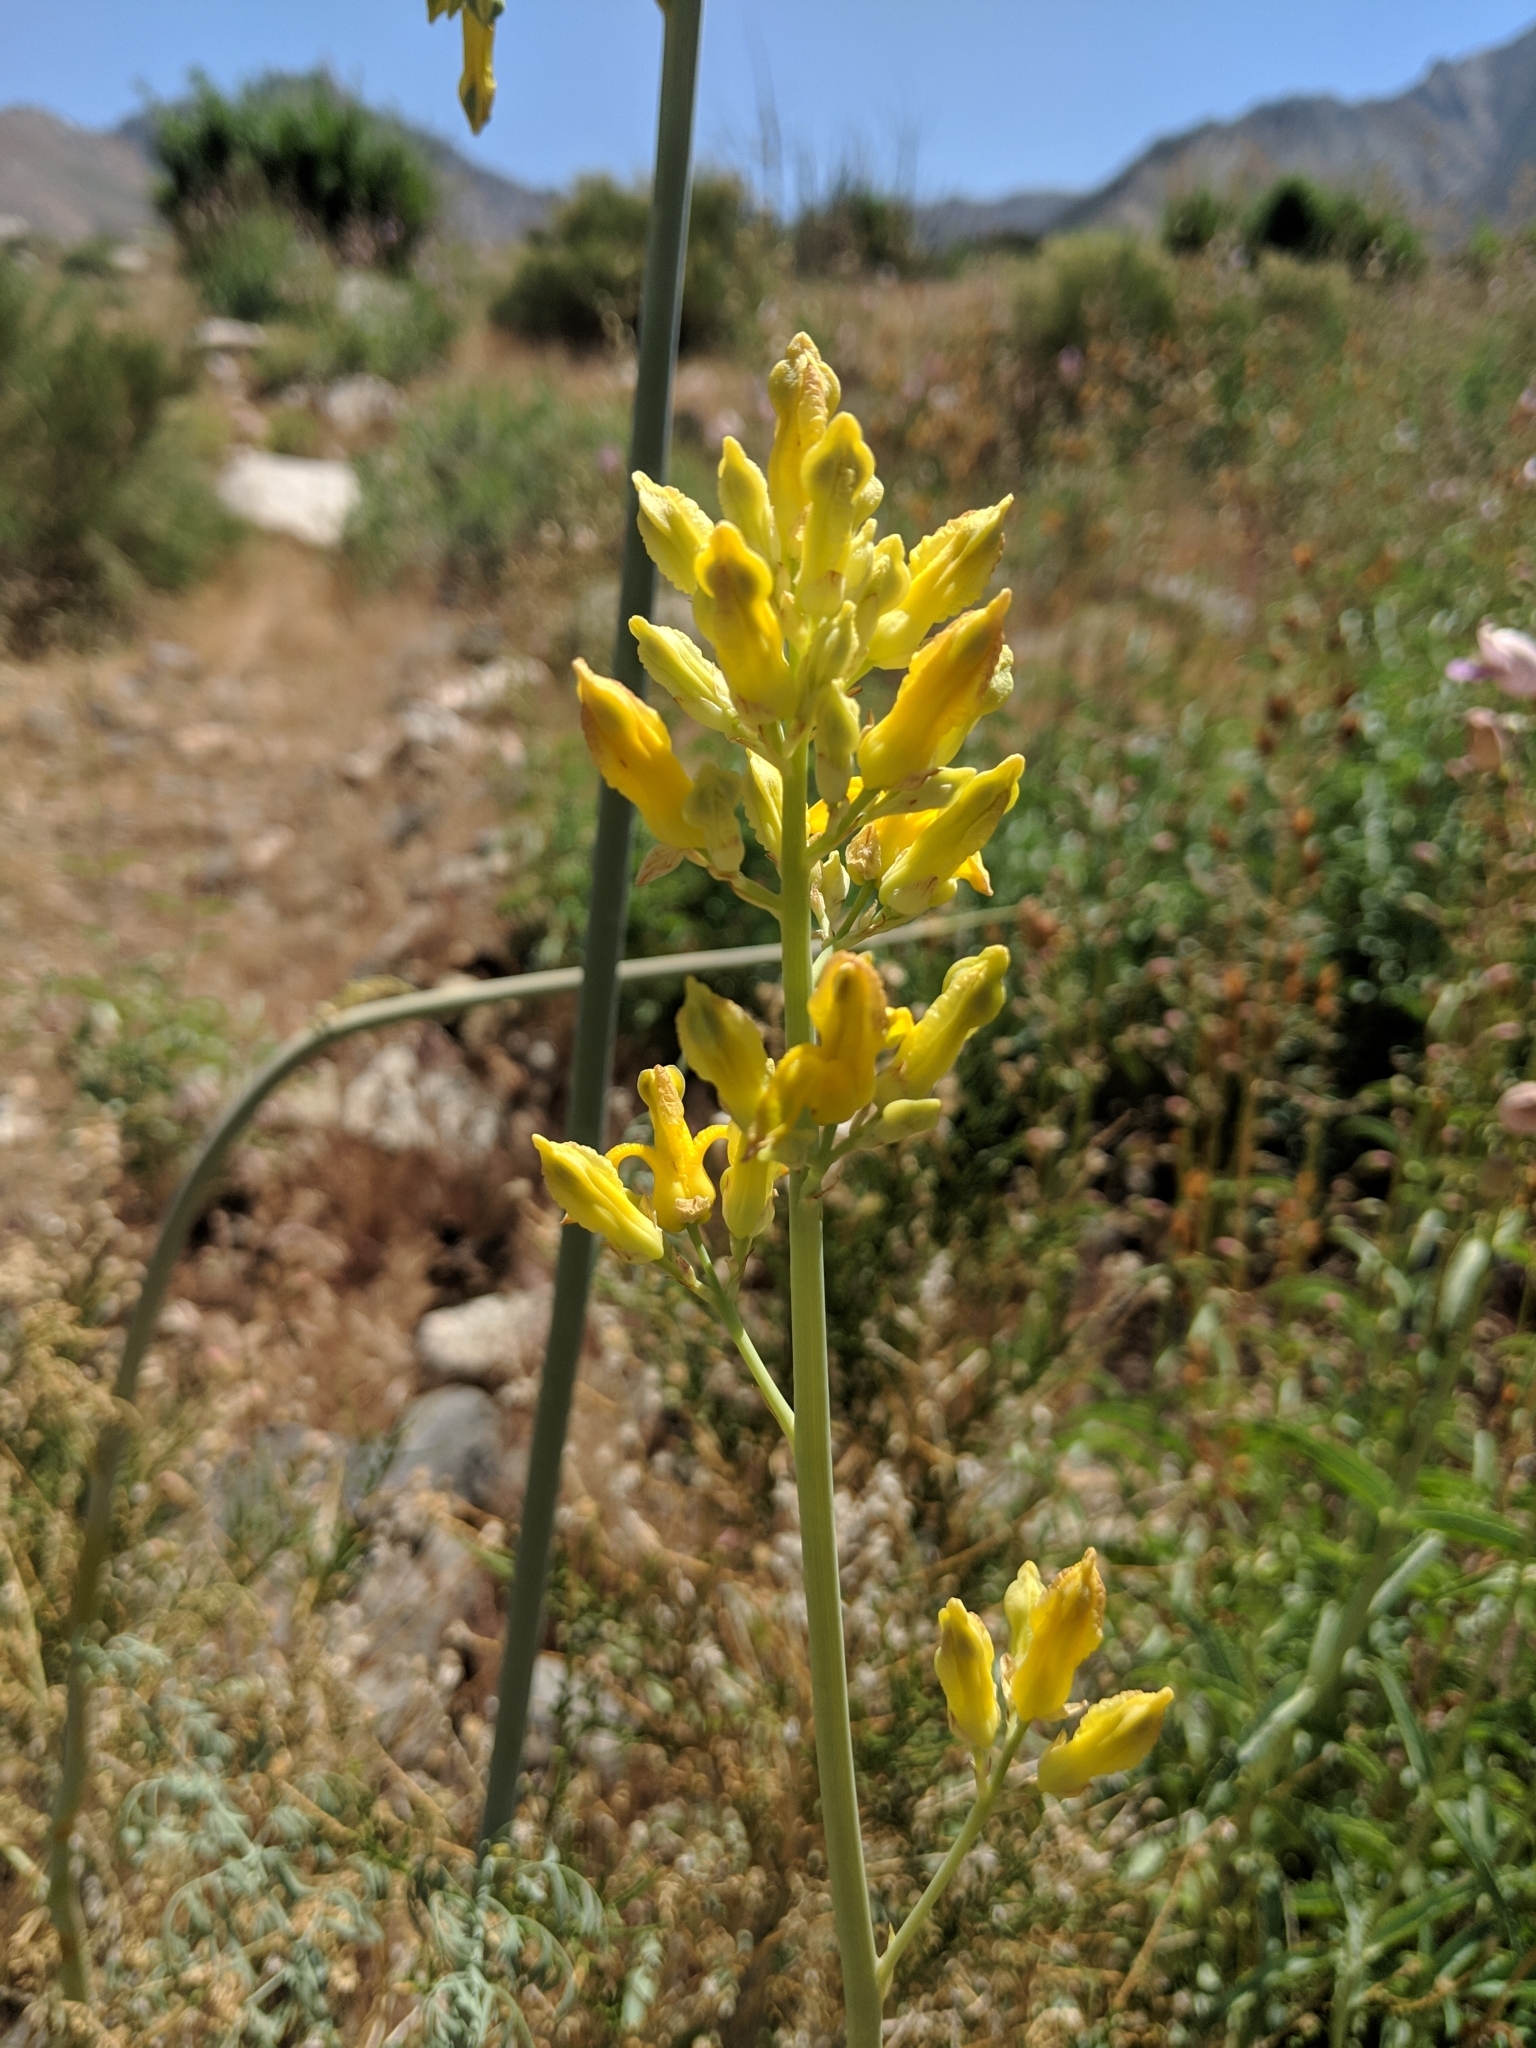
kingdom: Plantae
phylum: Tracheophyta
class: Magnoliopsida
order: Ranunculales
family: Papaveraceae
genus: Ehrendorferia
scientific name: Ehrendorferia chrysantha
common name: Golden eardrops
